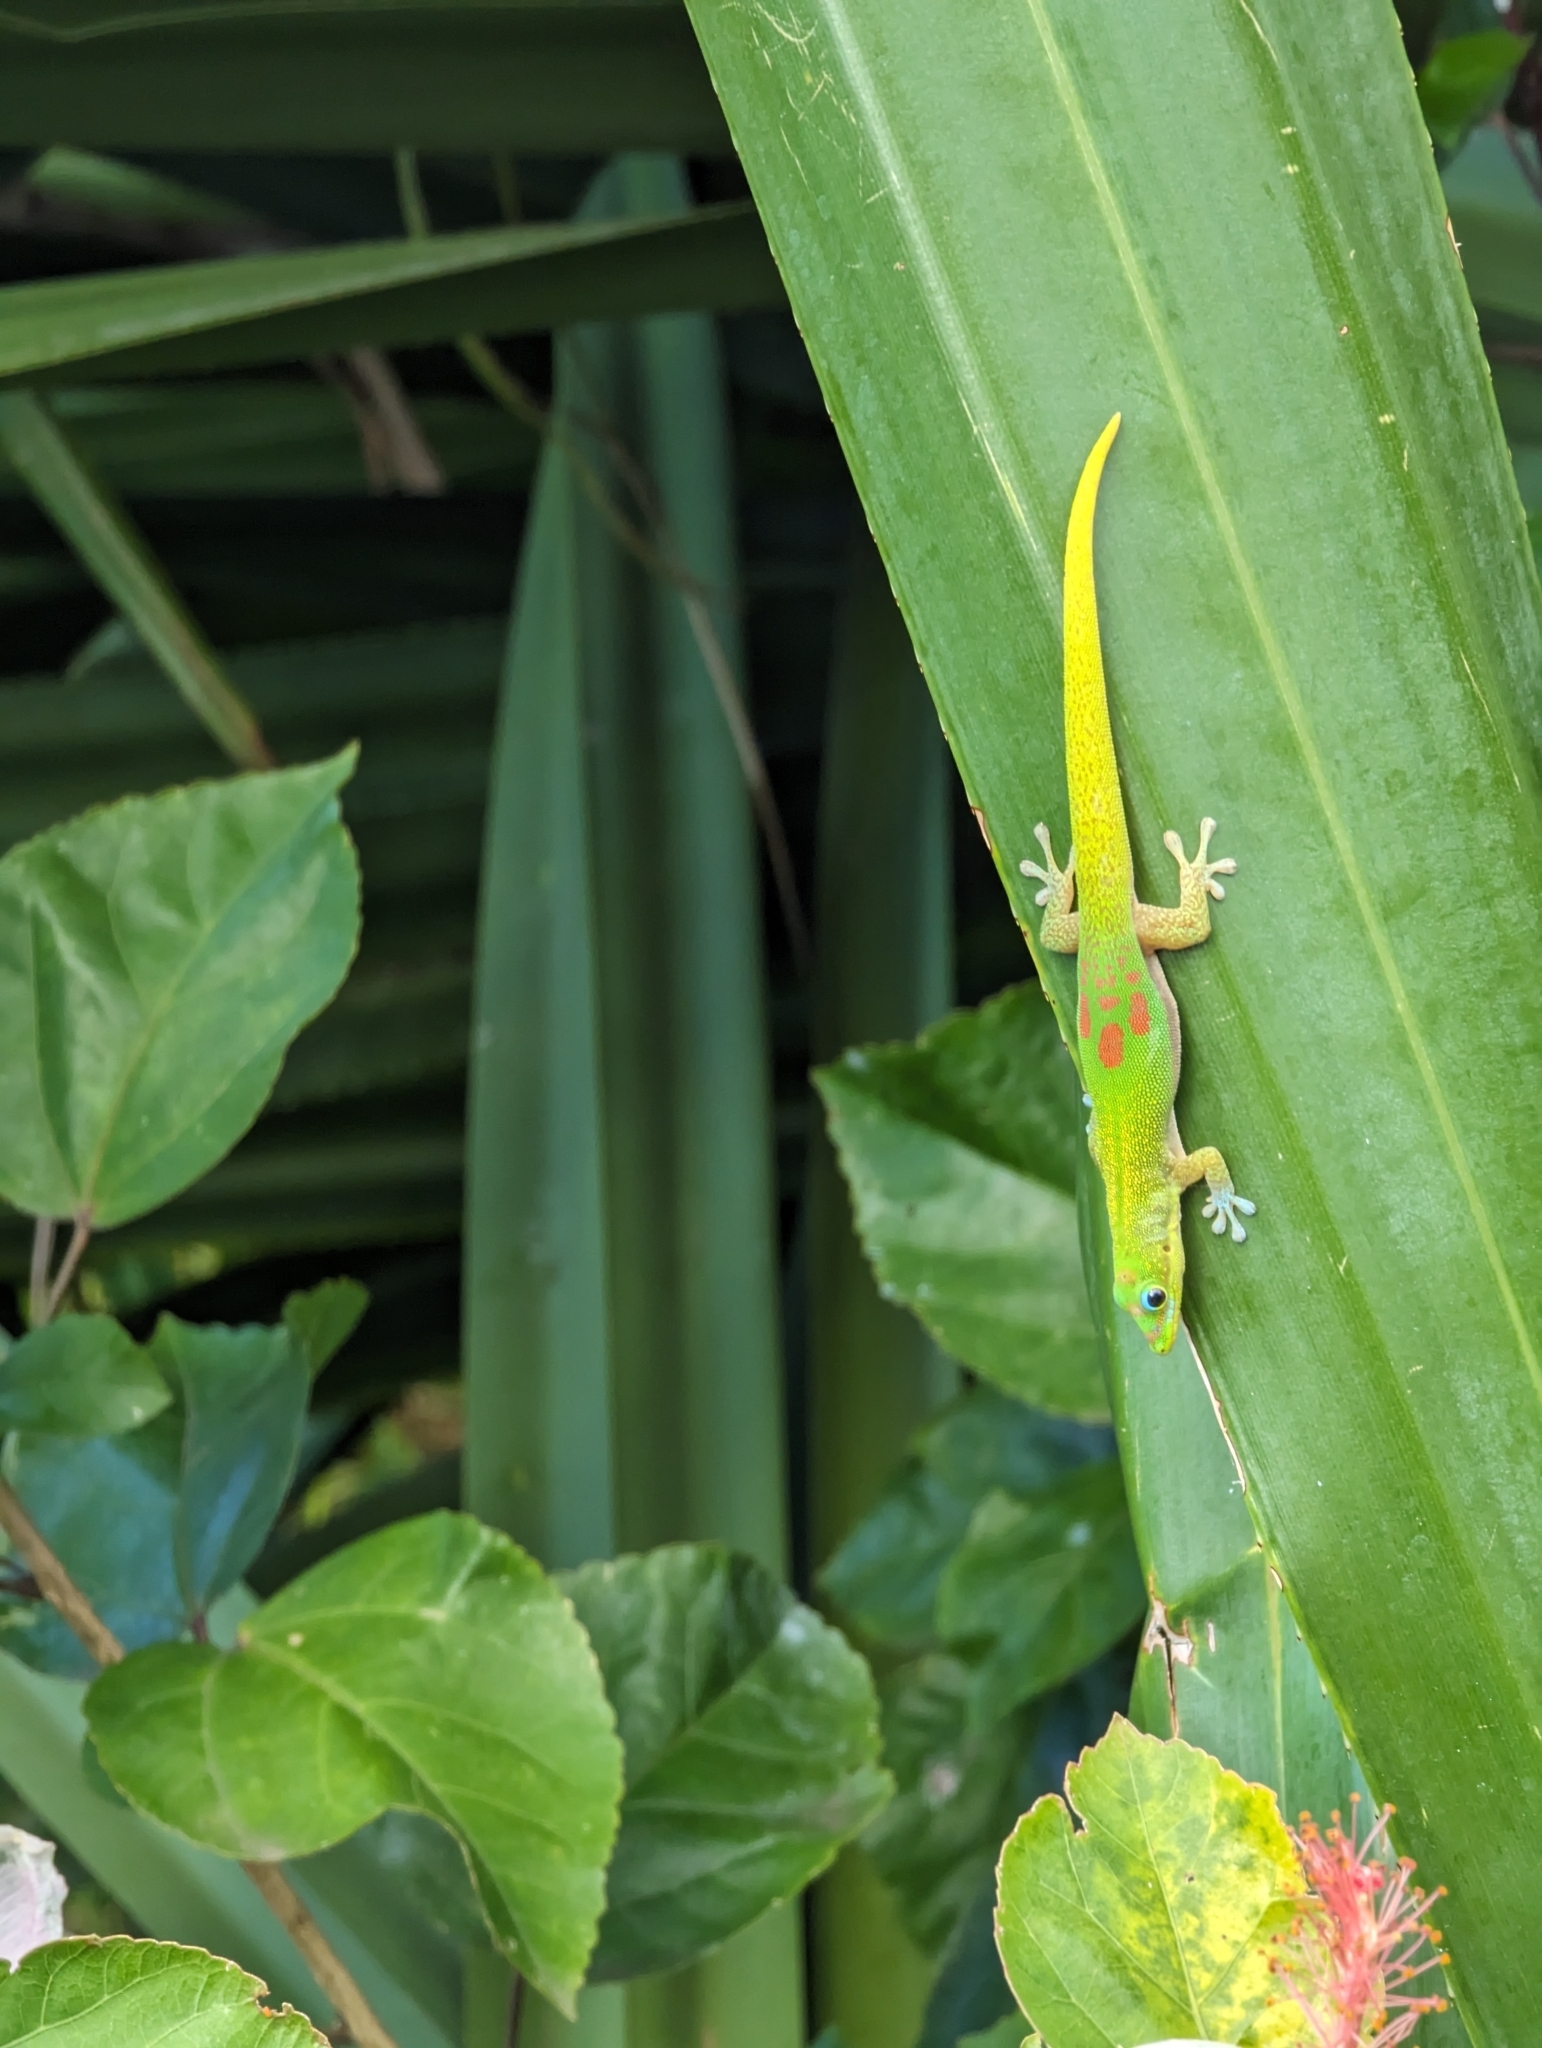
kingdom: Animalia
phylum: Chordata
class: Squamata
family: Gekkonidae
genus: Phelsuma
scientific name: Phelsuma laticauda
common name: Gold dust day gecko
